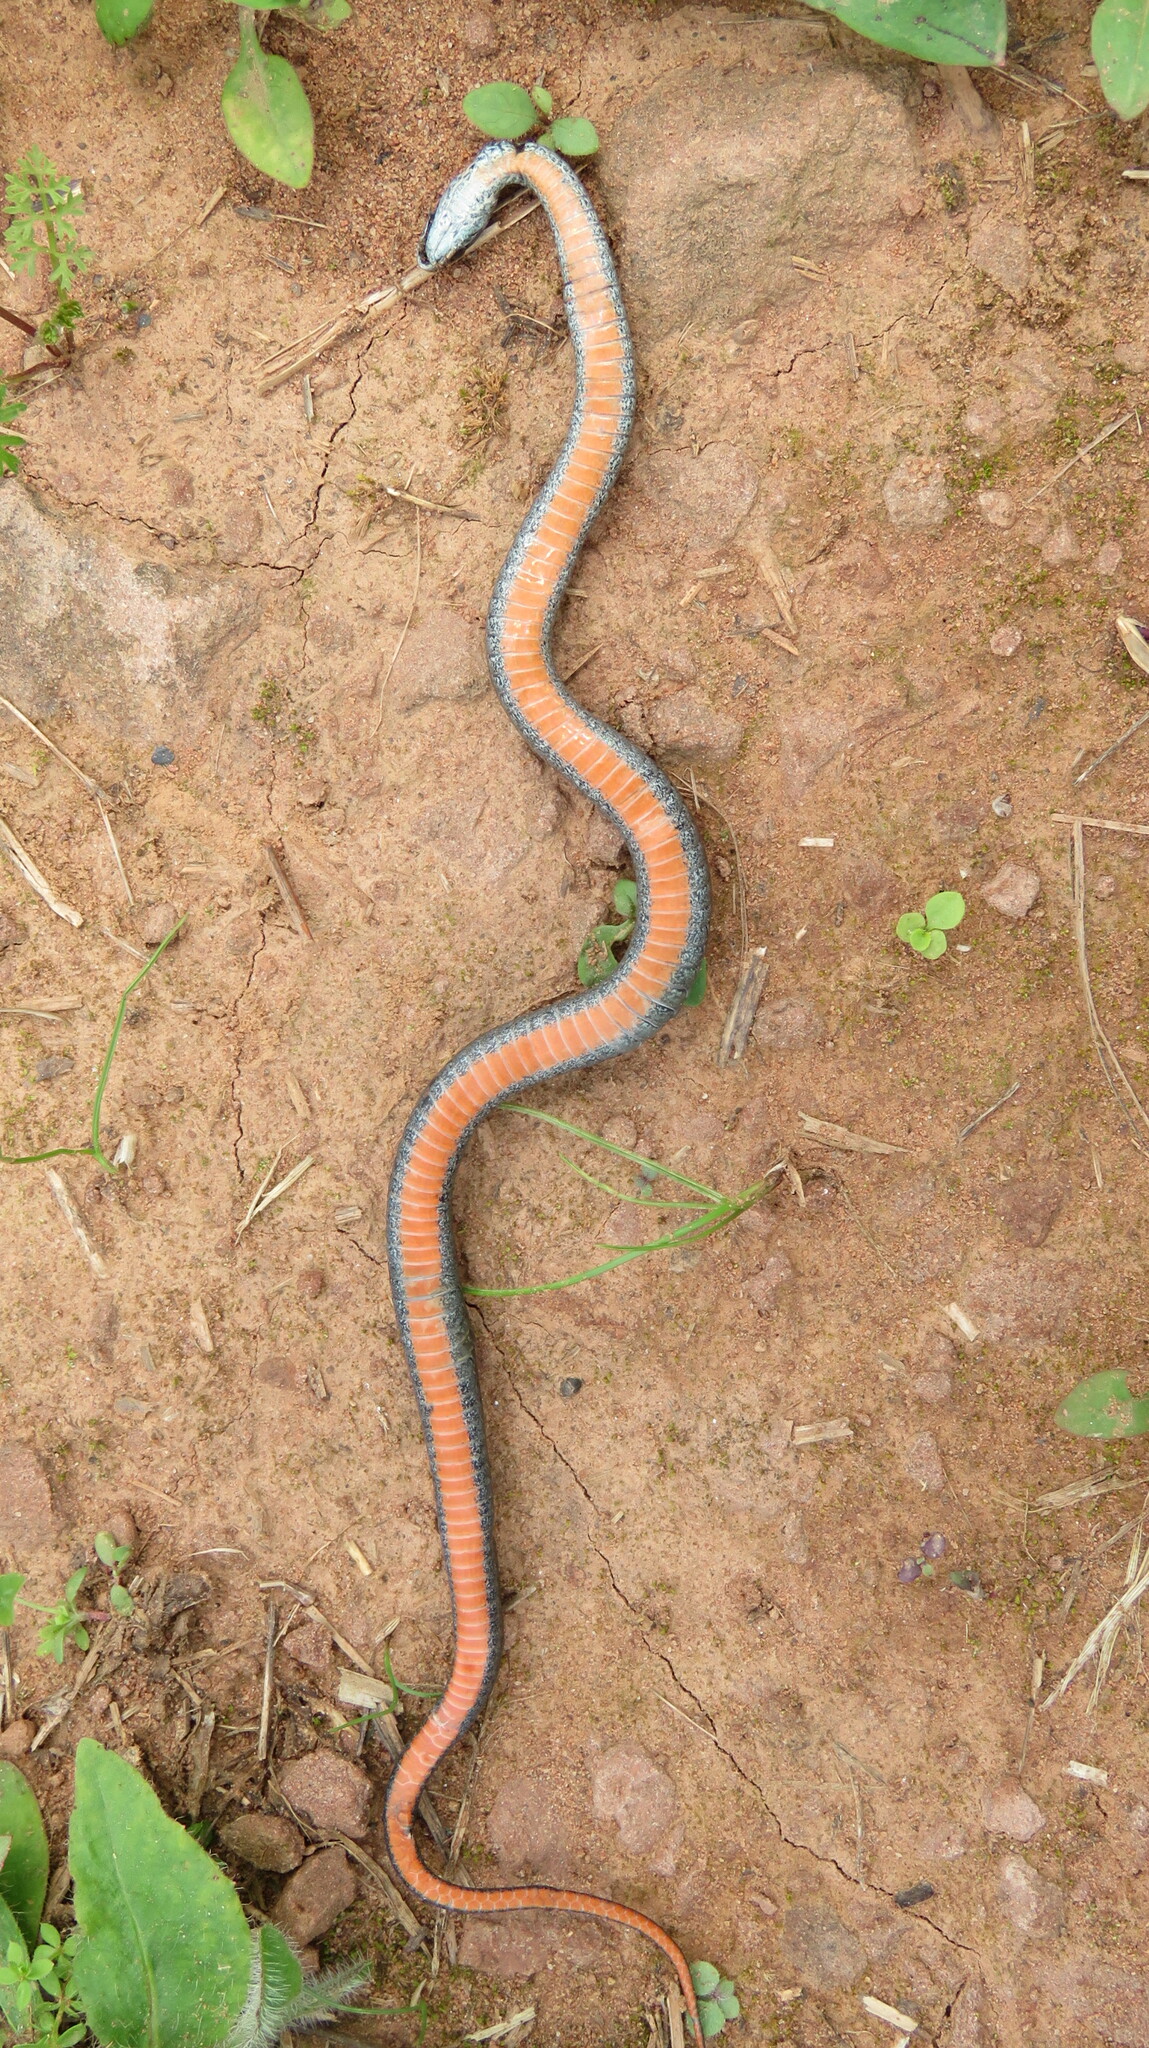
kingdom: Animalia
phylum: Chordata
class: Squamata
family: Colubridae
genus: Storeria
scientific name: Storeria occipitomaculata
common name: Redbelly snake
